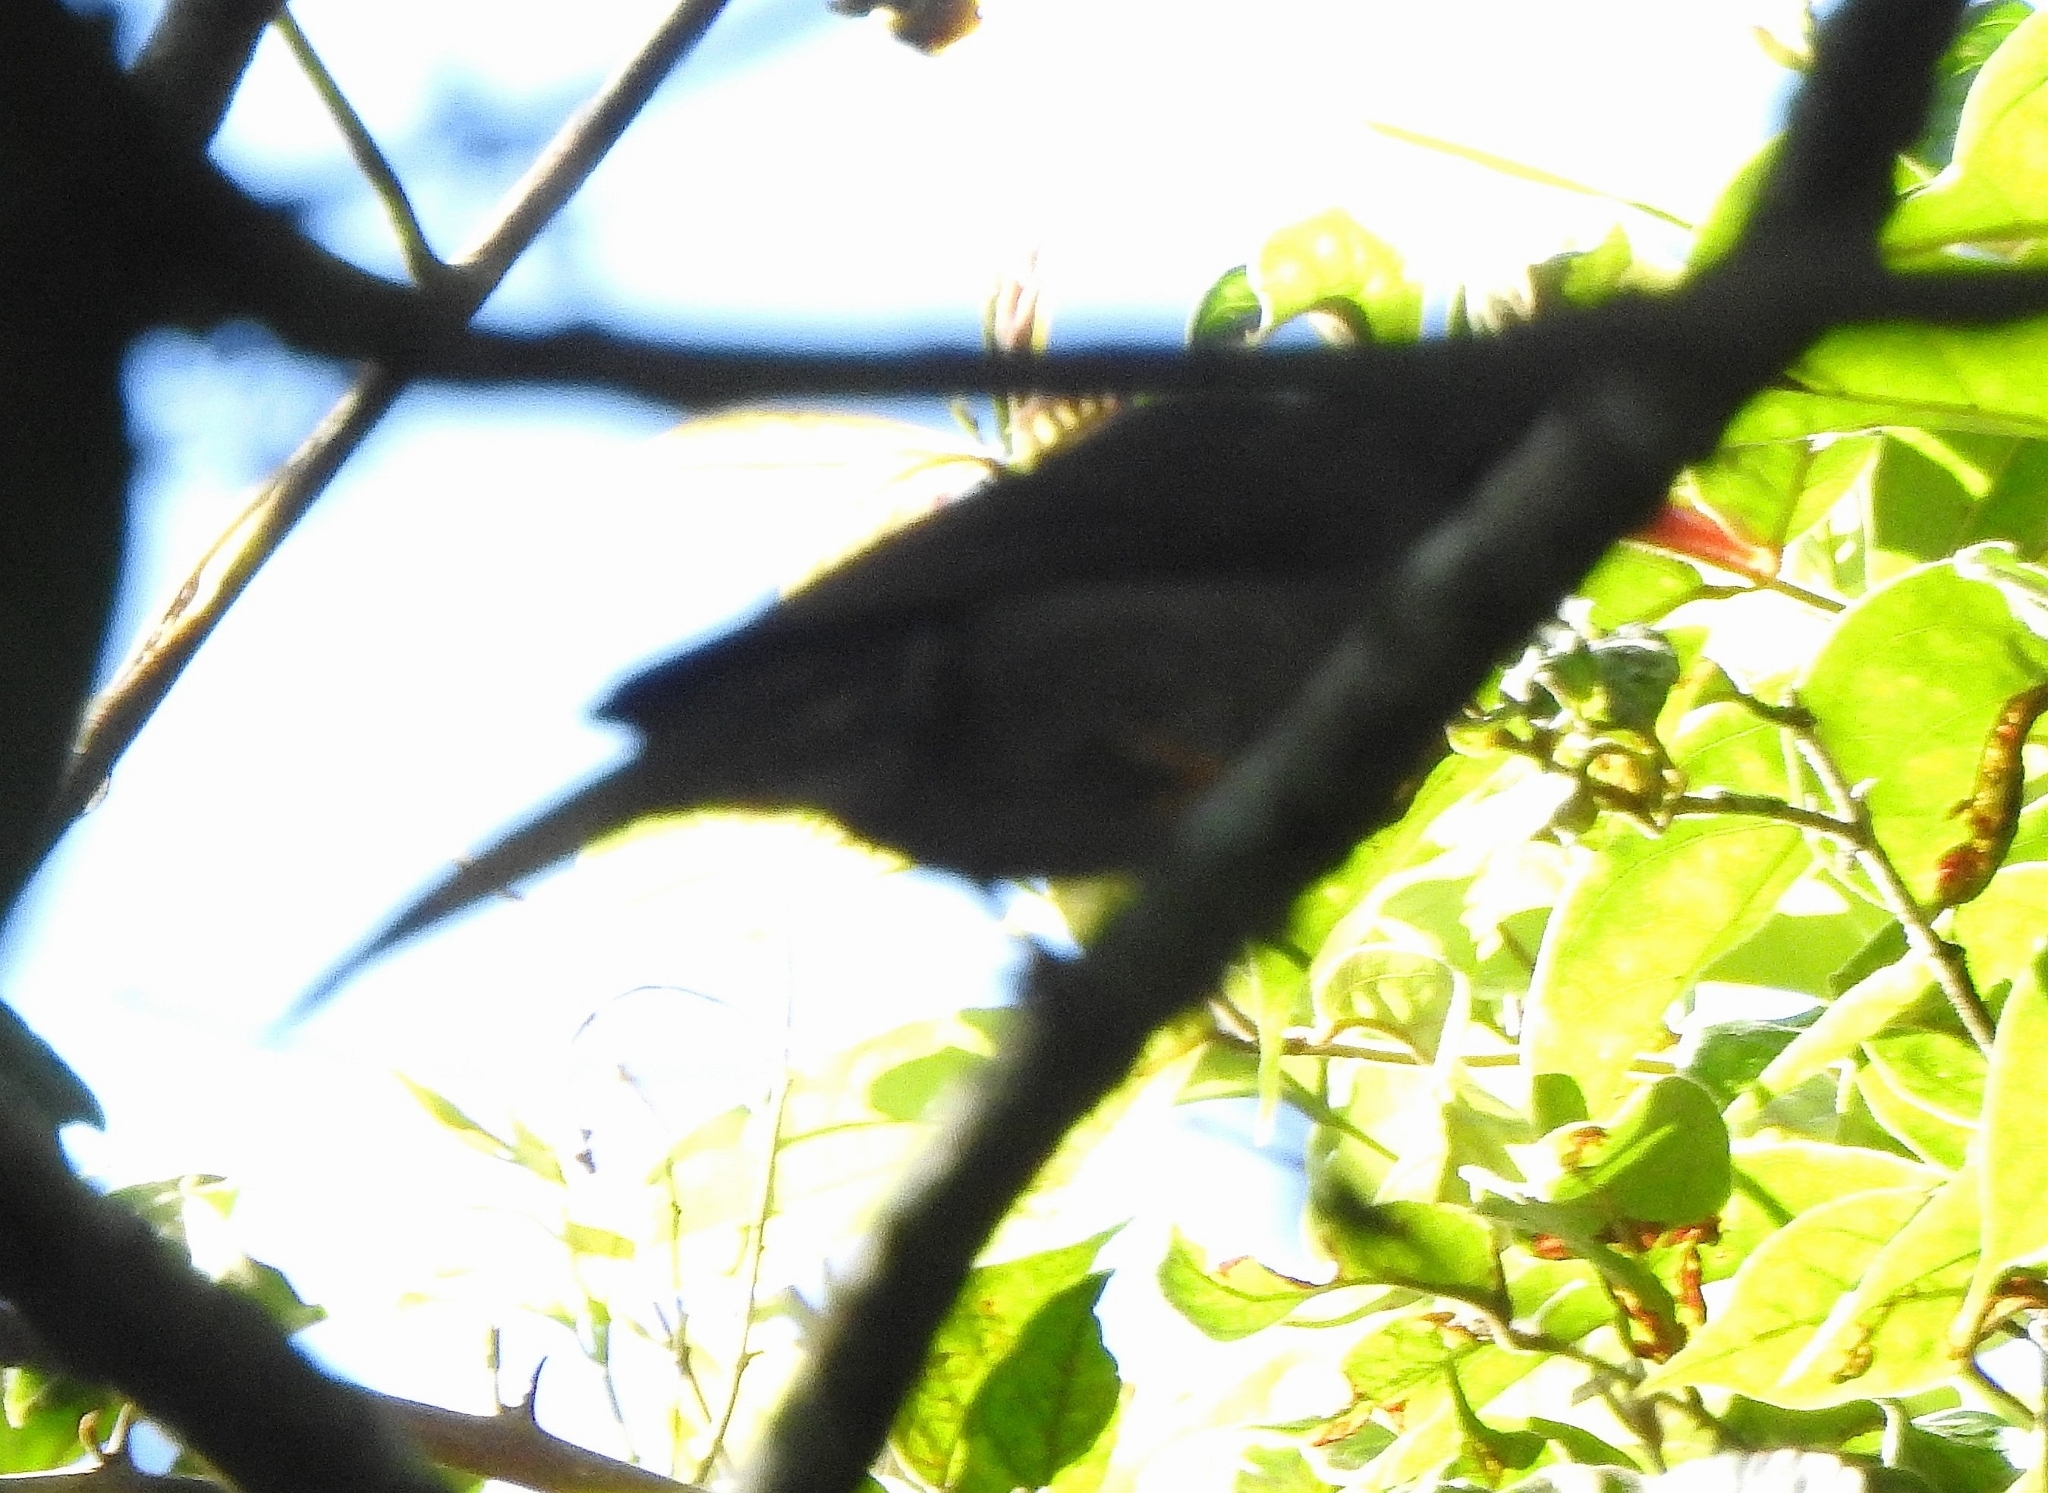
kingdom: Animalia
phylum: Chordata
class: Aves
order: Passeriformes
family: Pycnonotidae
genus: Hypsipetes
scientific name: Hypsipetes ganeesa
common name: Square-tailed bulbul
